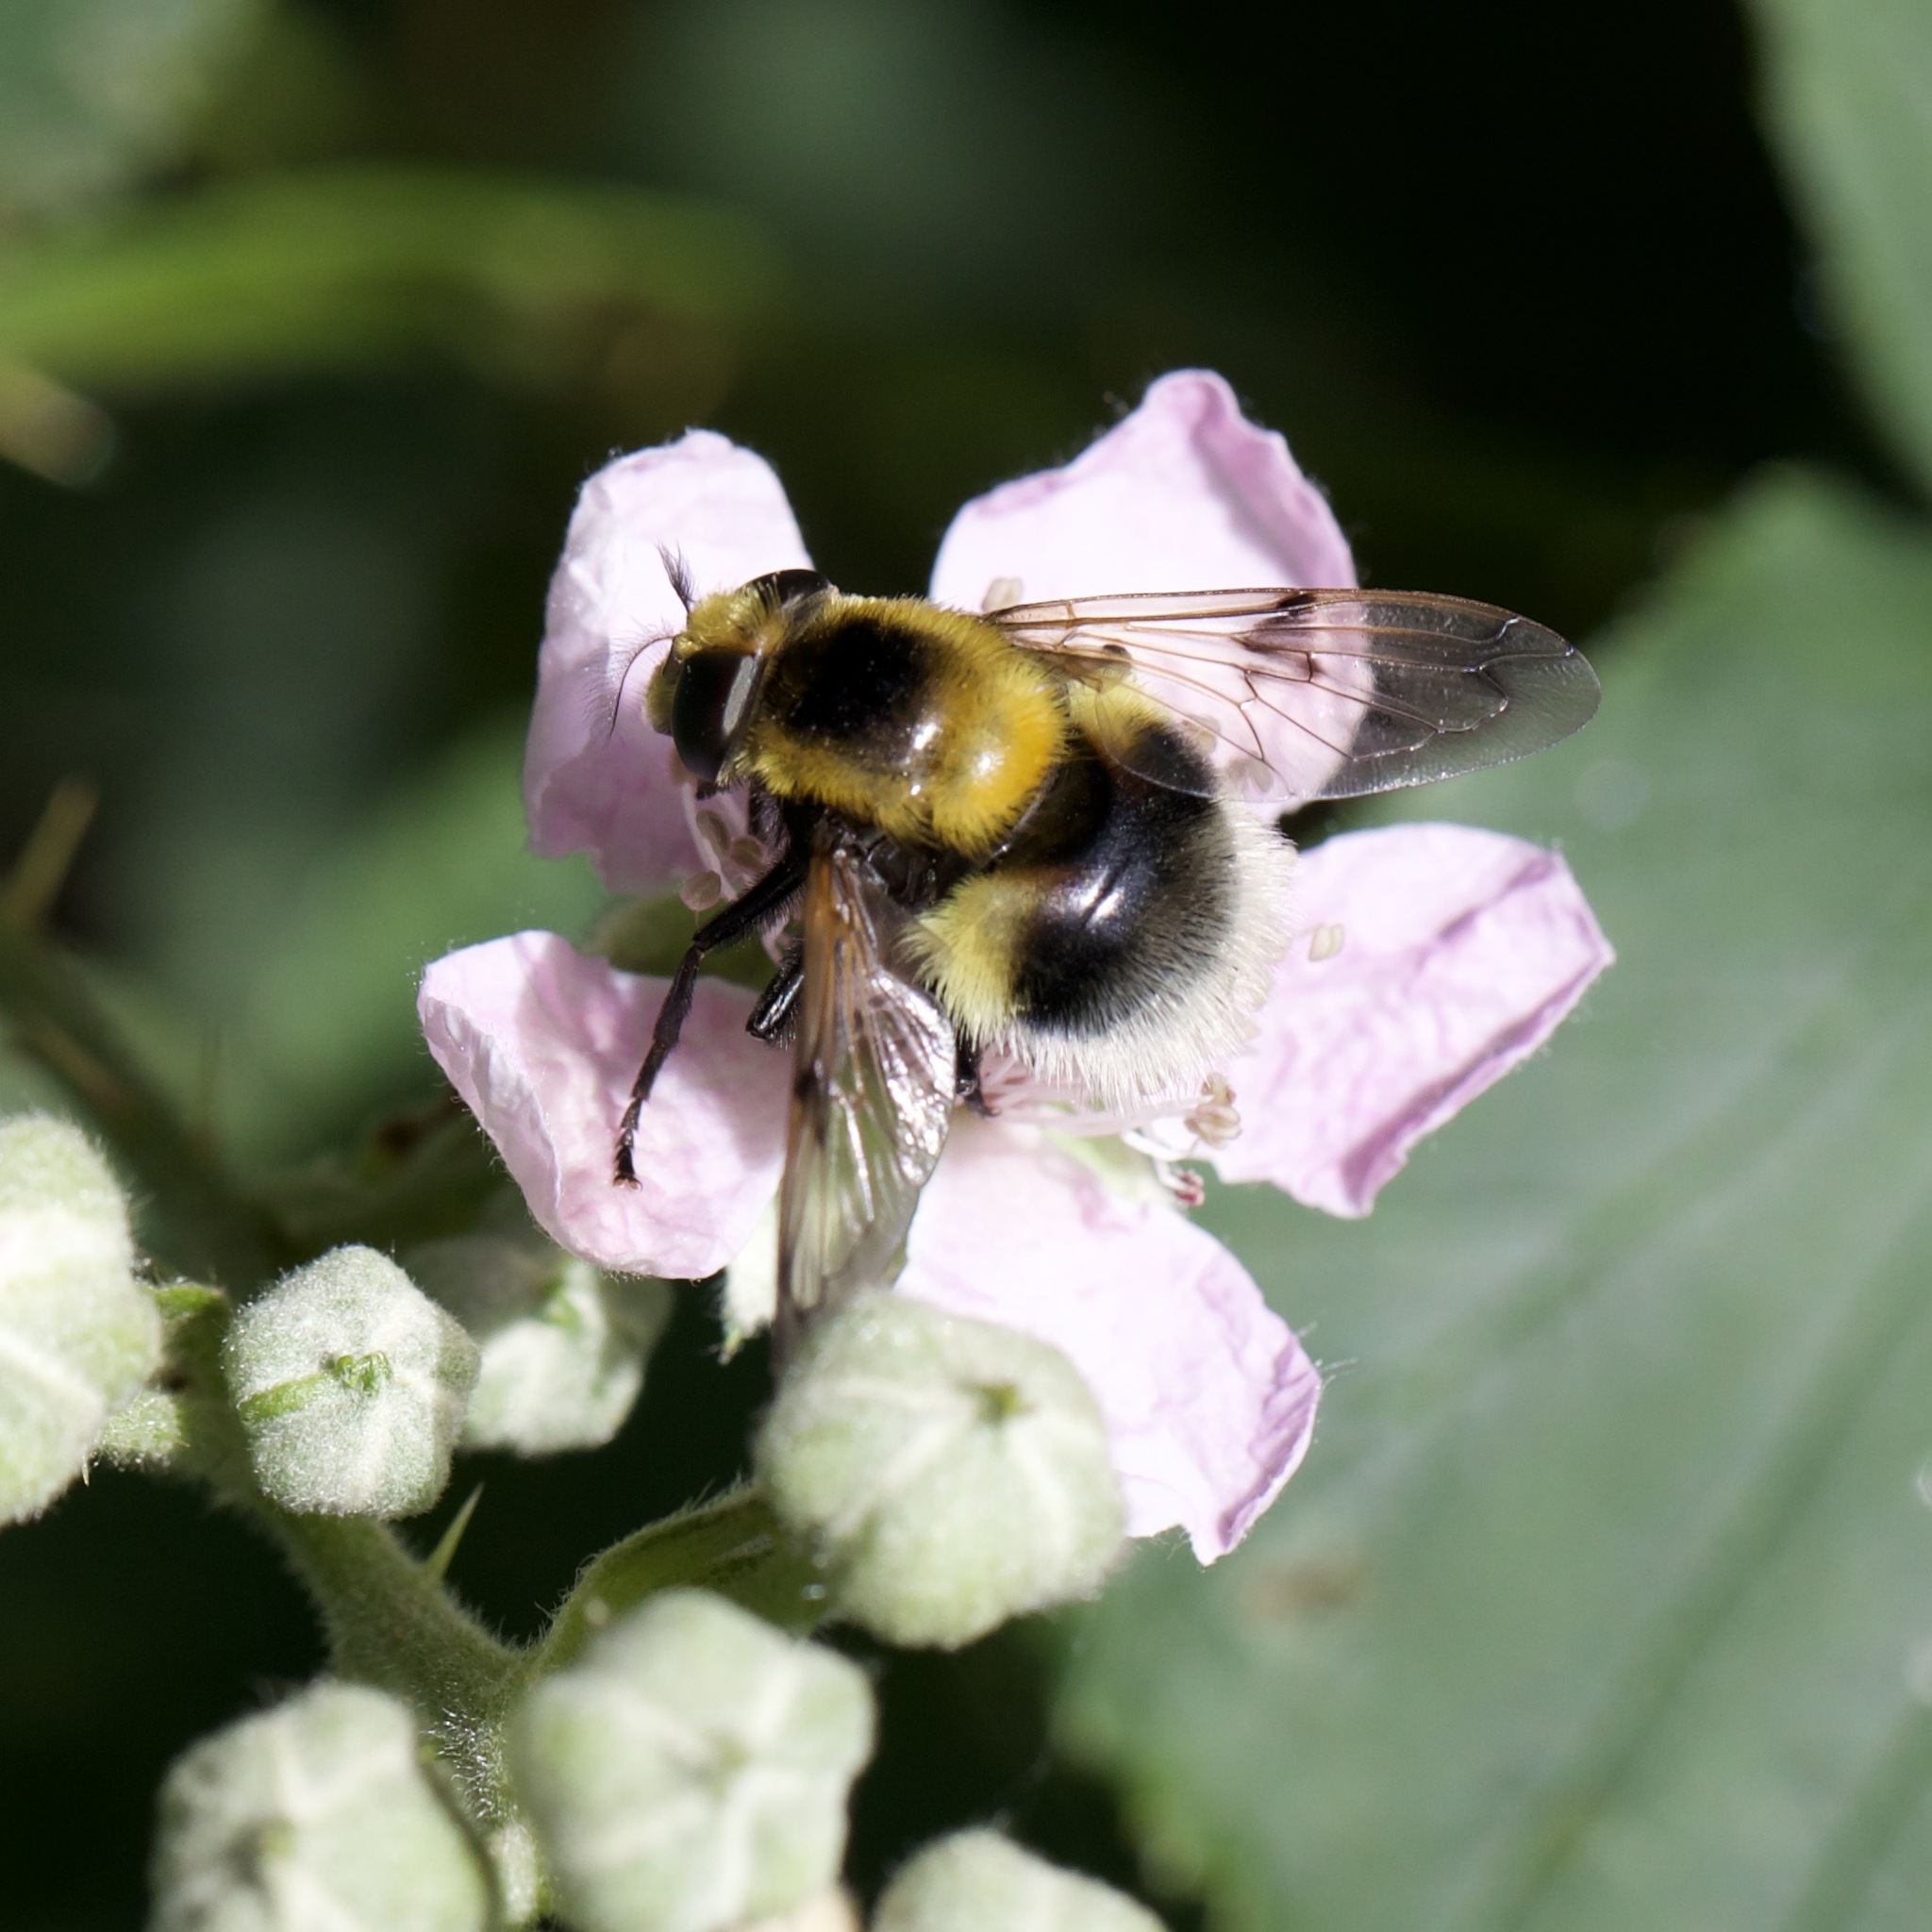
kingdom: Animalia
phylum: Arthropoda
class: Insecta
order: Diptera
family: Syrphidae
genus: Volucella
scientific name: Volucella bombylans
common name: Bumble bee hover fly
